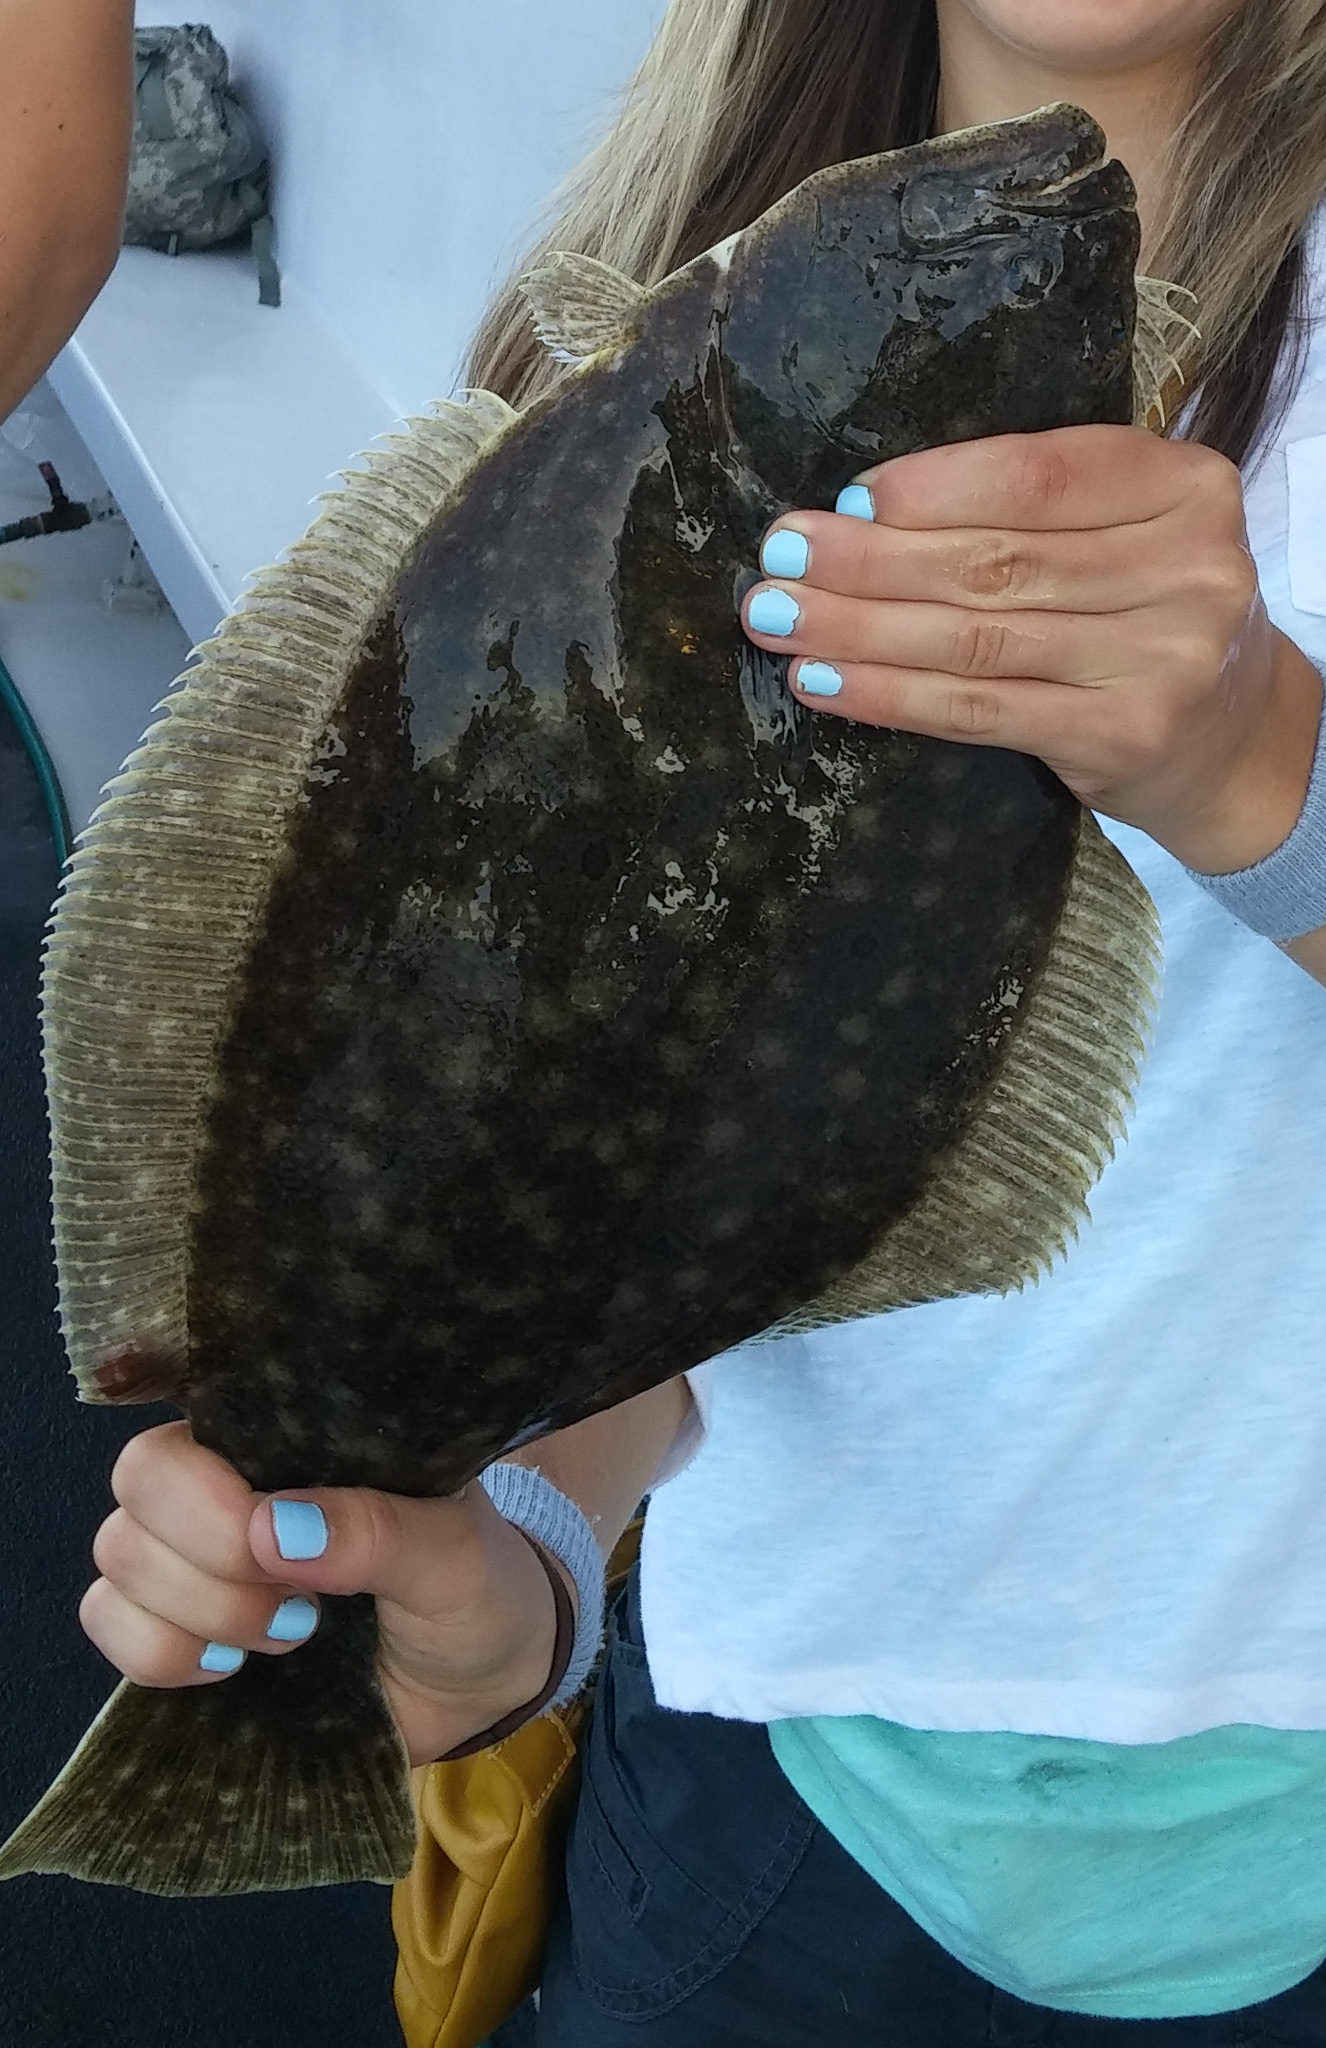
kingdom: Animalia
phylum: Chordata
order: Pleuronectiformes
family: Paralichthyidae
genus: Paralichthys
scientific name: Paralichthys dentatus
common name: Summer flounder
